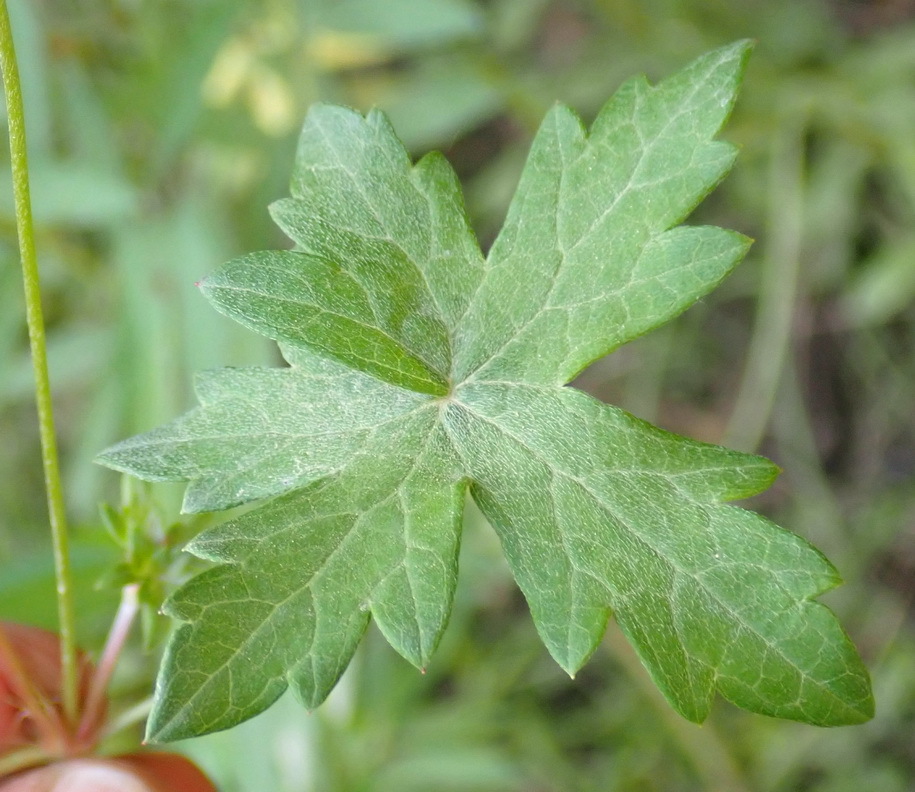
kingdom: Plantae
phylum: Tracheophyta
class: Magnoliopsida
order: Geraniales
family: Geraniaceae
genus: Geranium
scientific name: Geranium ornithopodon
